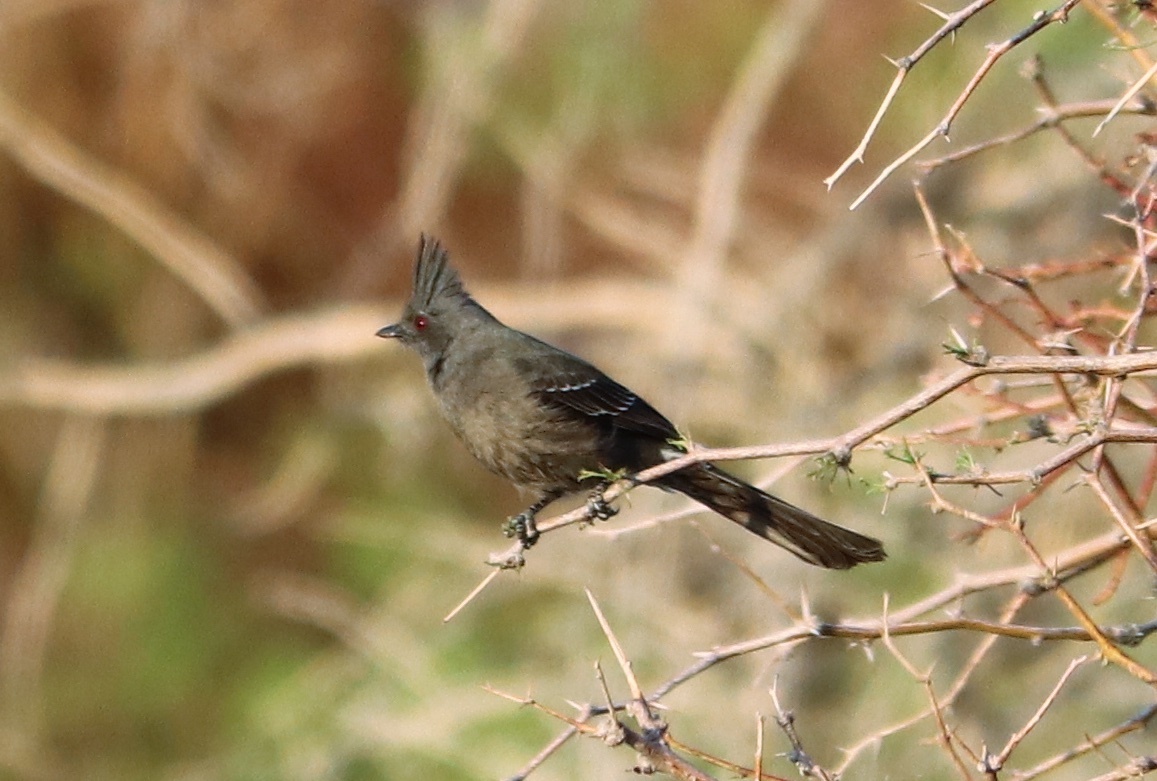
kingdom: Animalia
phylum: Chordata
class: Aves
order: Passeriformes
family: Ptilogonatidae
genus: Phainopepla
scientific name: Phainopepla nitens
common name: Phainopepla
